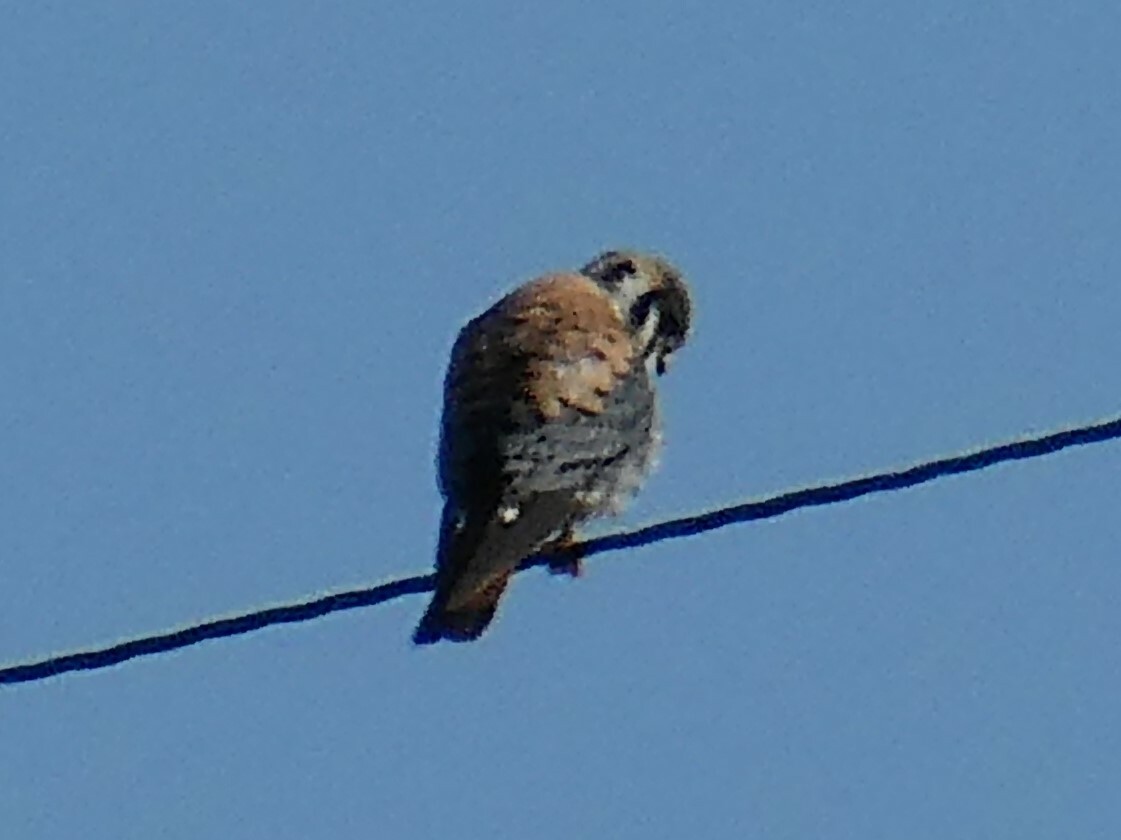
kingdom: Animalia
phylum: Chordata
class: Aves
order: Falconiformes
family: Falconidae
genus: Falco
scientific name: Falco sparverius
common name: American kestrel
